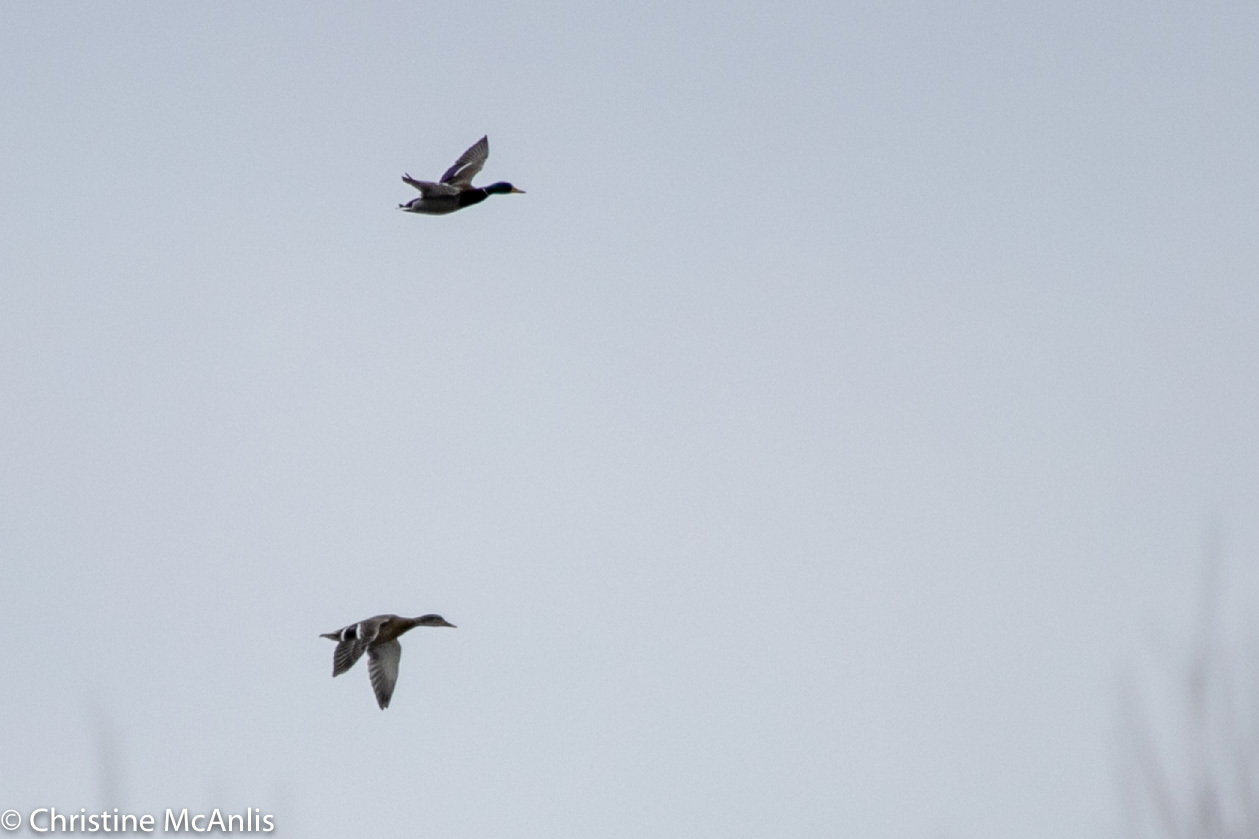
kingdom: Animalia
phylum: Chordata
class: Aves
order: Anseriformes
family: Anatidae
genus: Anas
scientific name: Anas platyrhynchos
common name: Mallard
